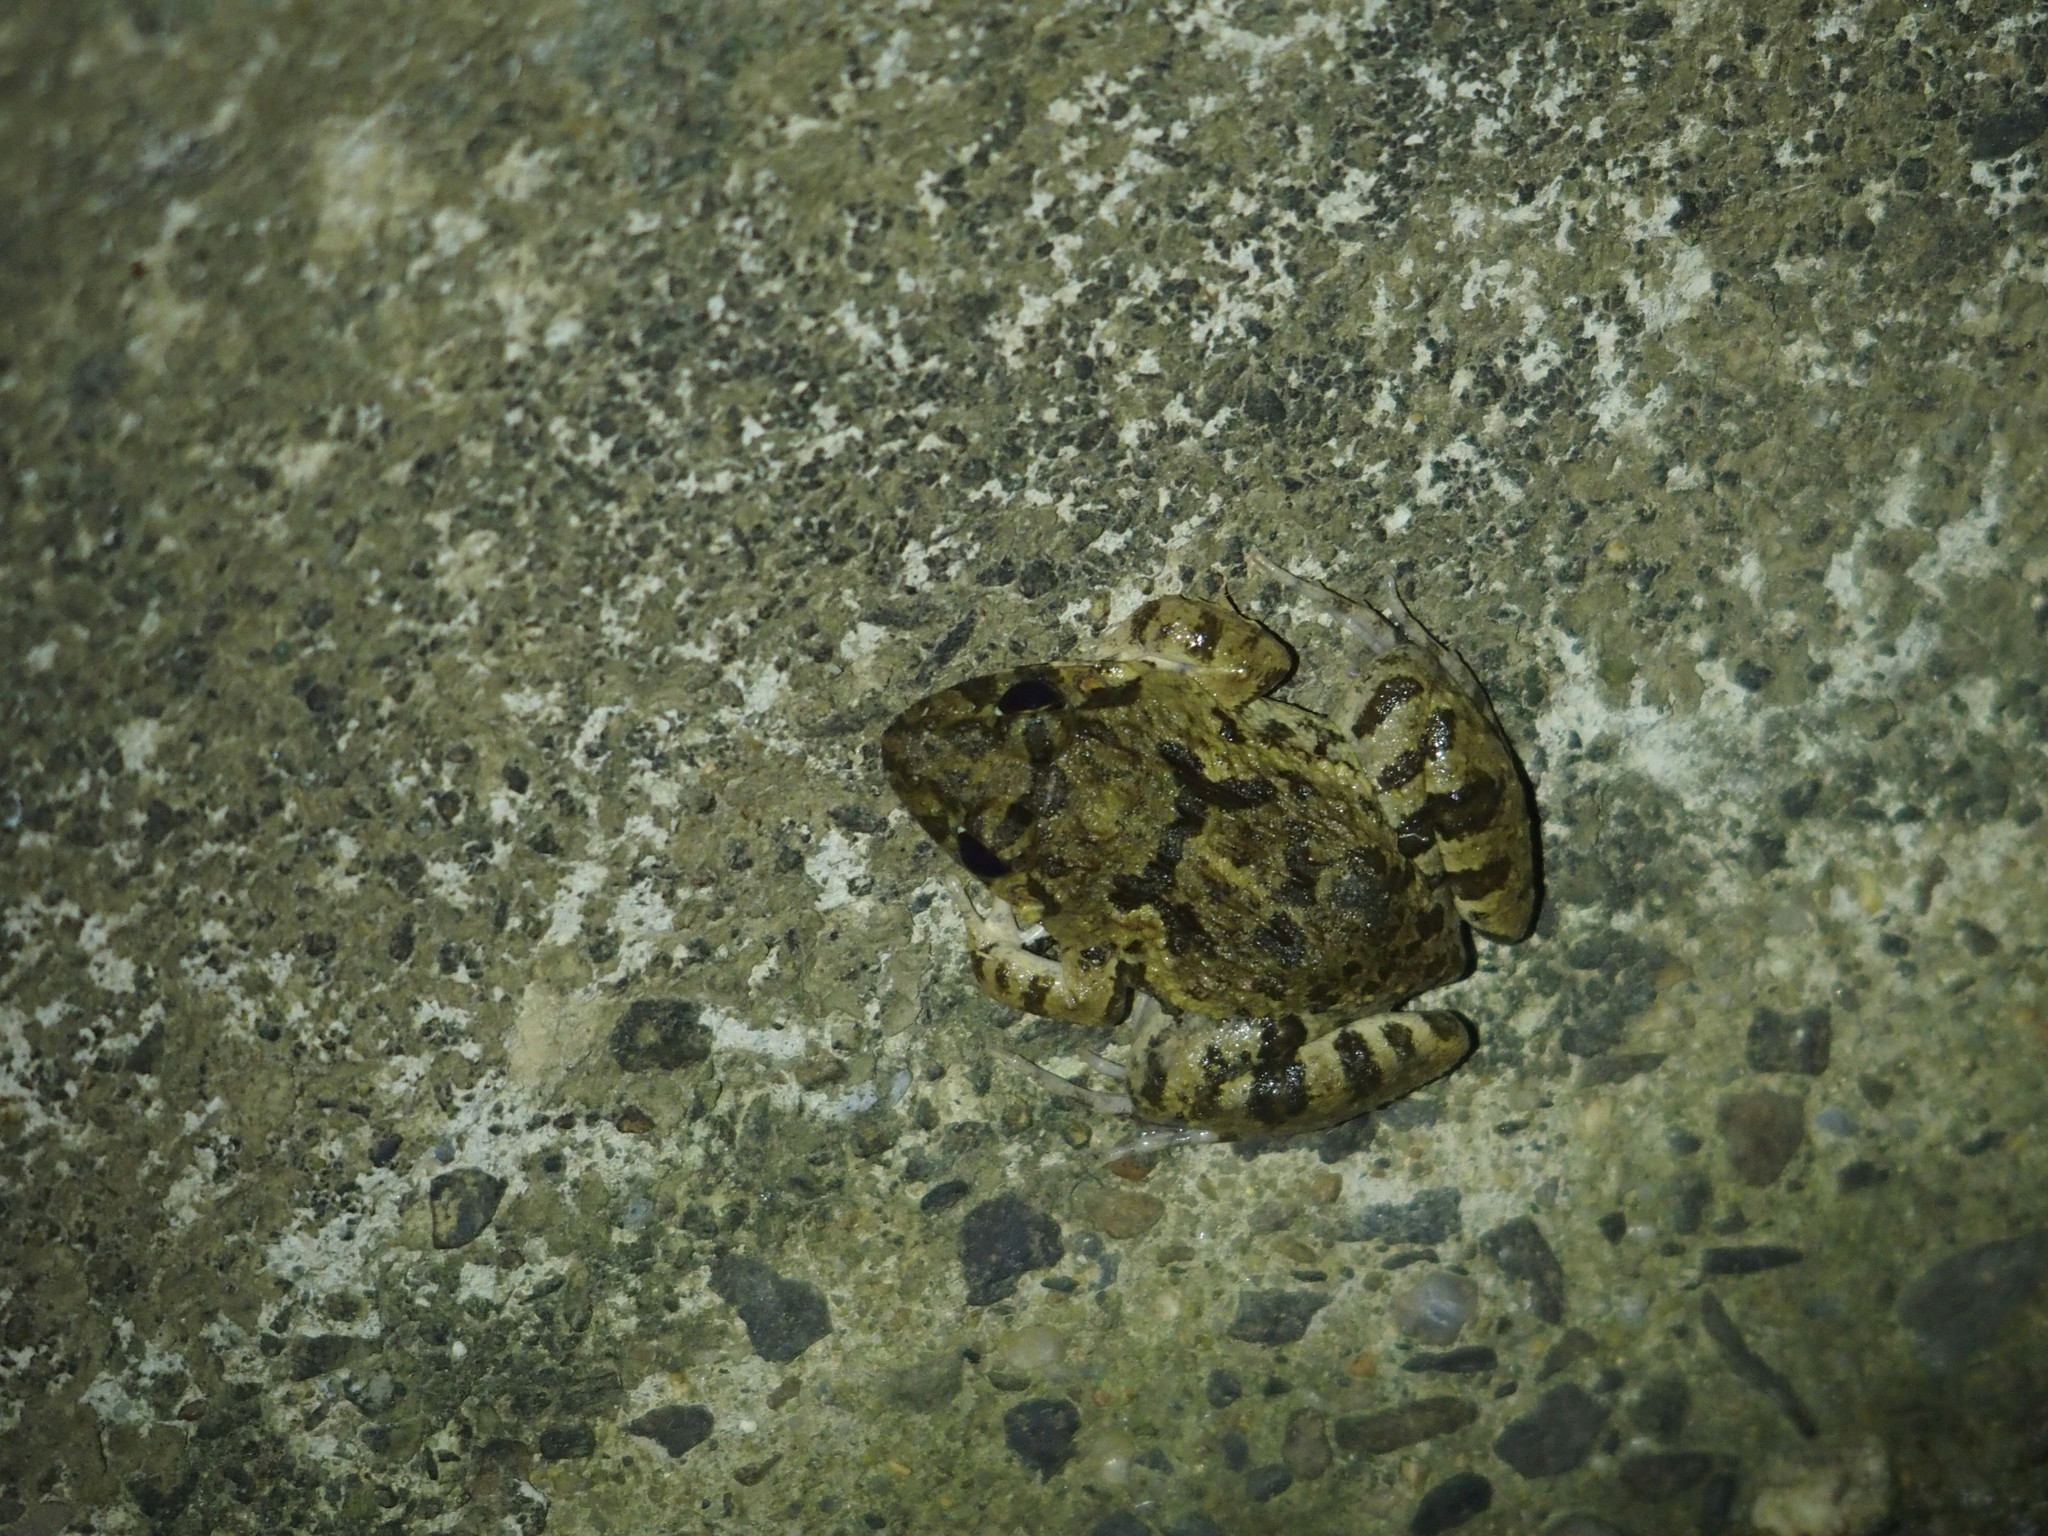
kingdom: Animalia
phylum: Chordata
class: Amphibia
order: Anura
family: Dicroglossidae
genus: Fejervarya
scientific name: Fejervarya limnocharis
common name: Asian grass frog/common pond frog/field frog/grass frog/indian rice frog
